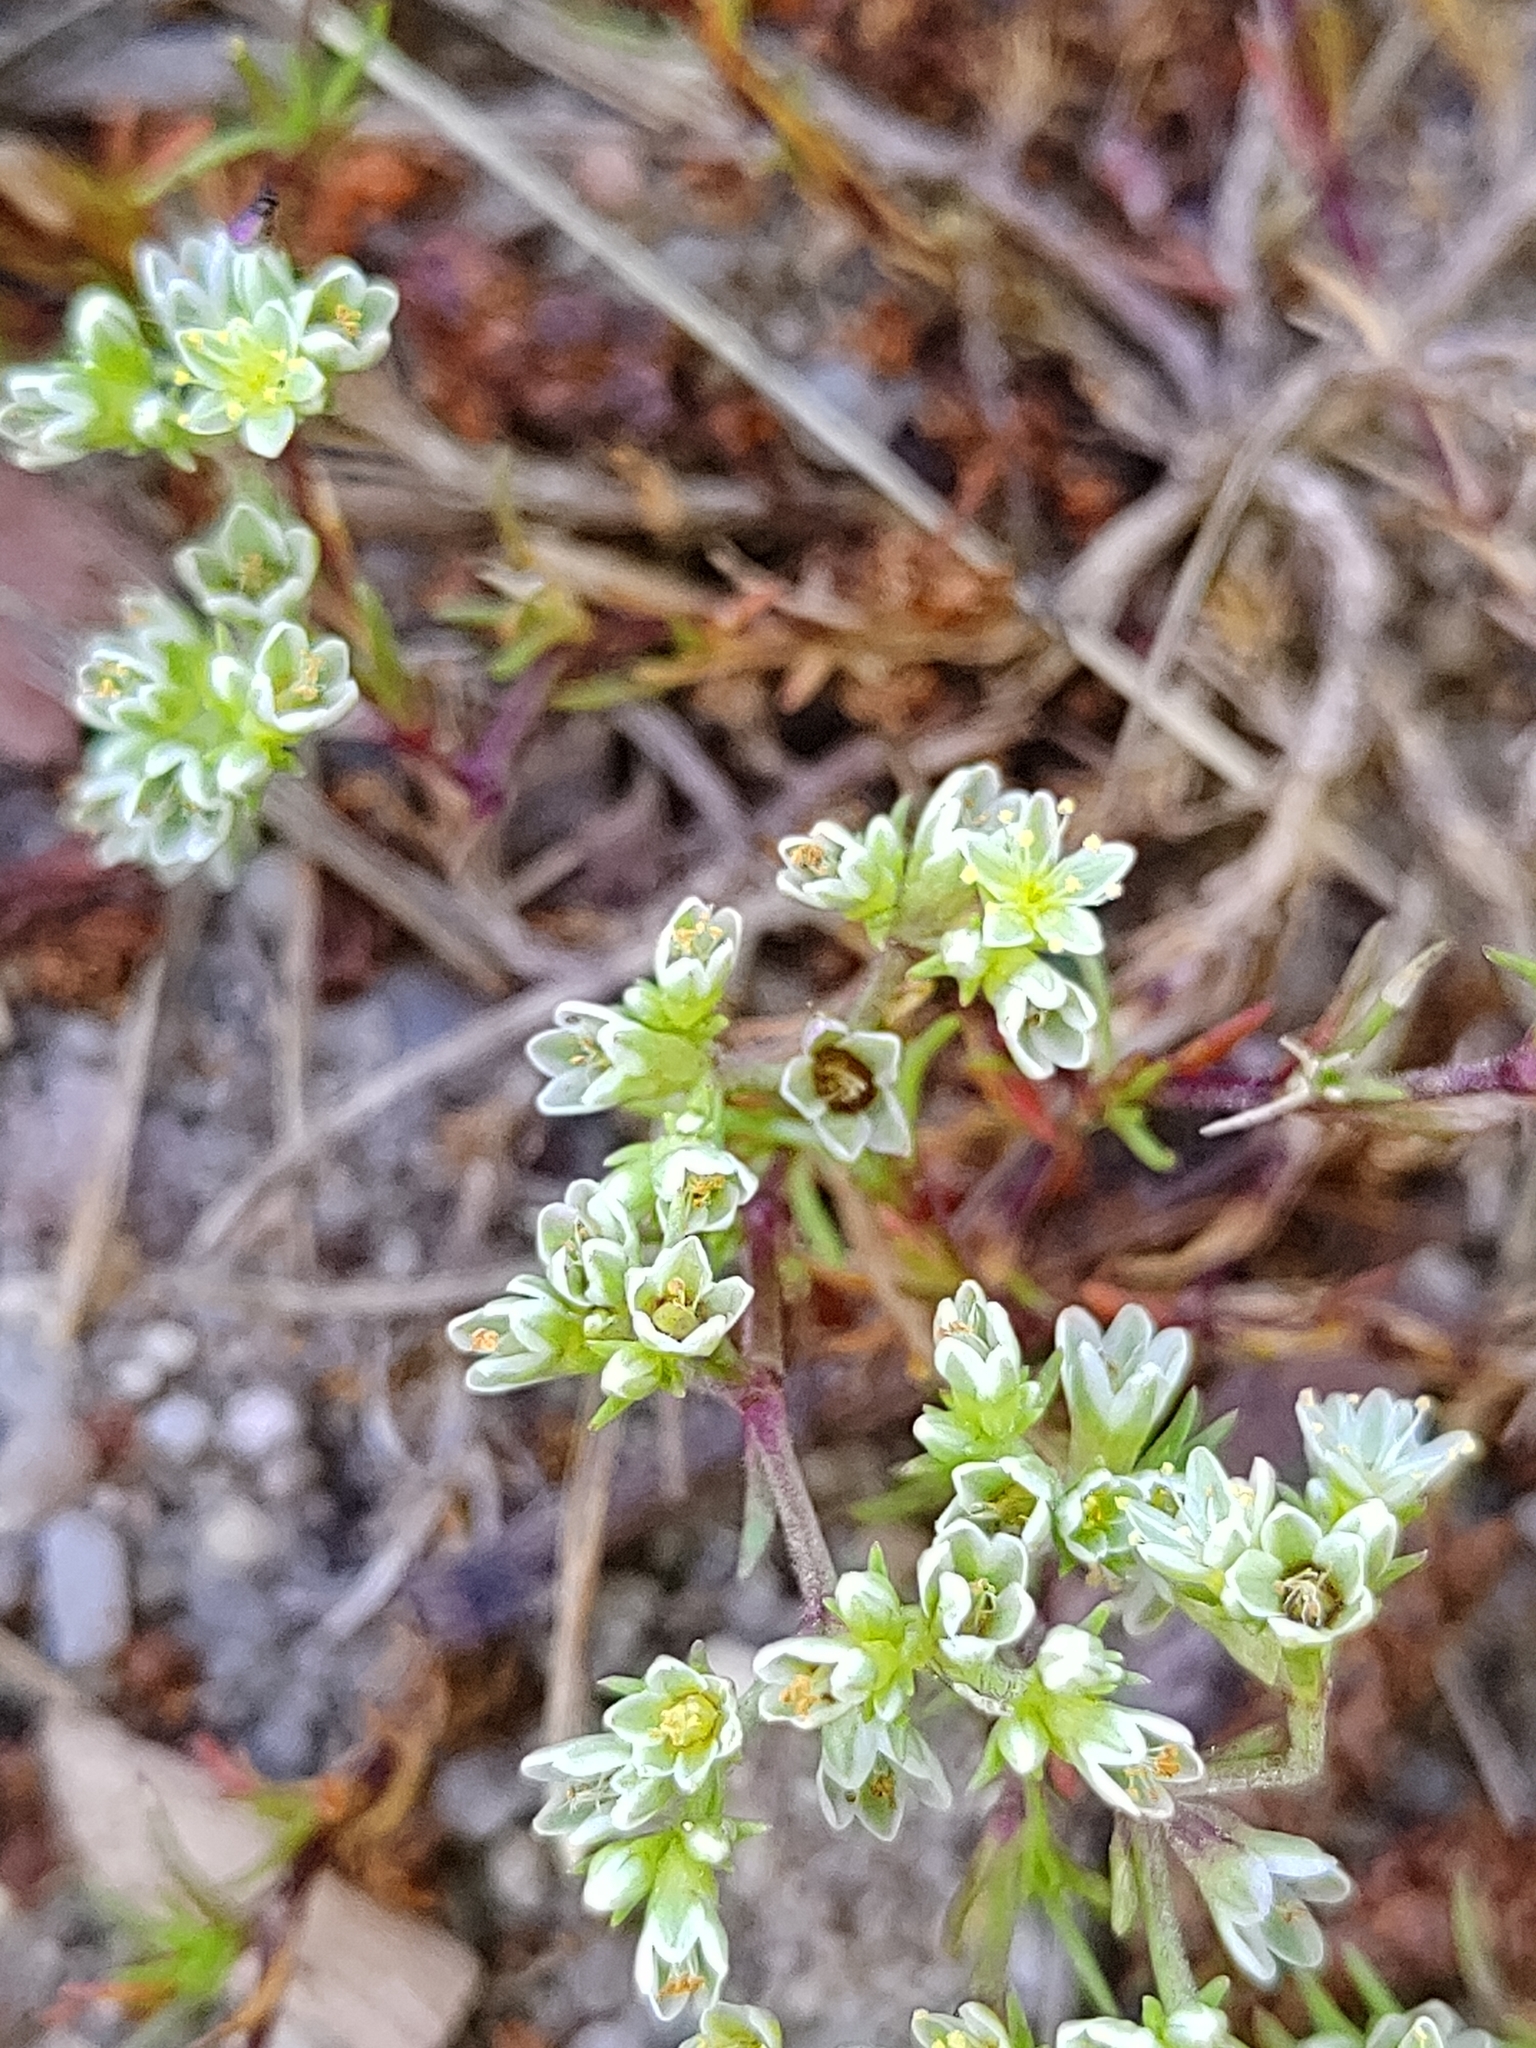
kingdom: Plantae
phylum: Tracheophyta
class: Magnoliopsida
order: Caryophyllales
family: Caryophyllaceae
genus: Scleranthus
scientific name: Scleranthus perennis
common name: Perennial knawel
